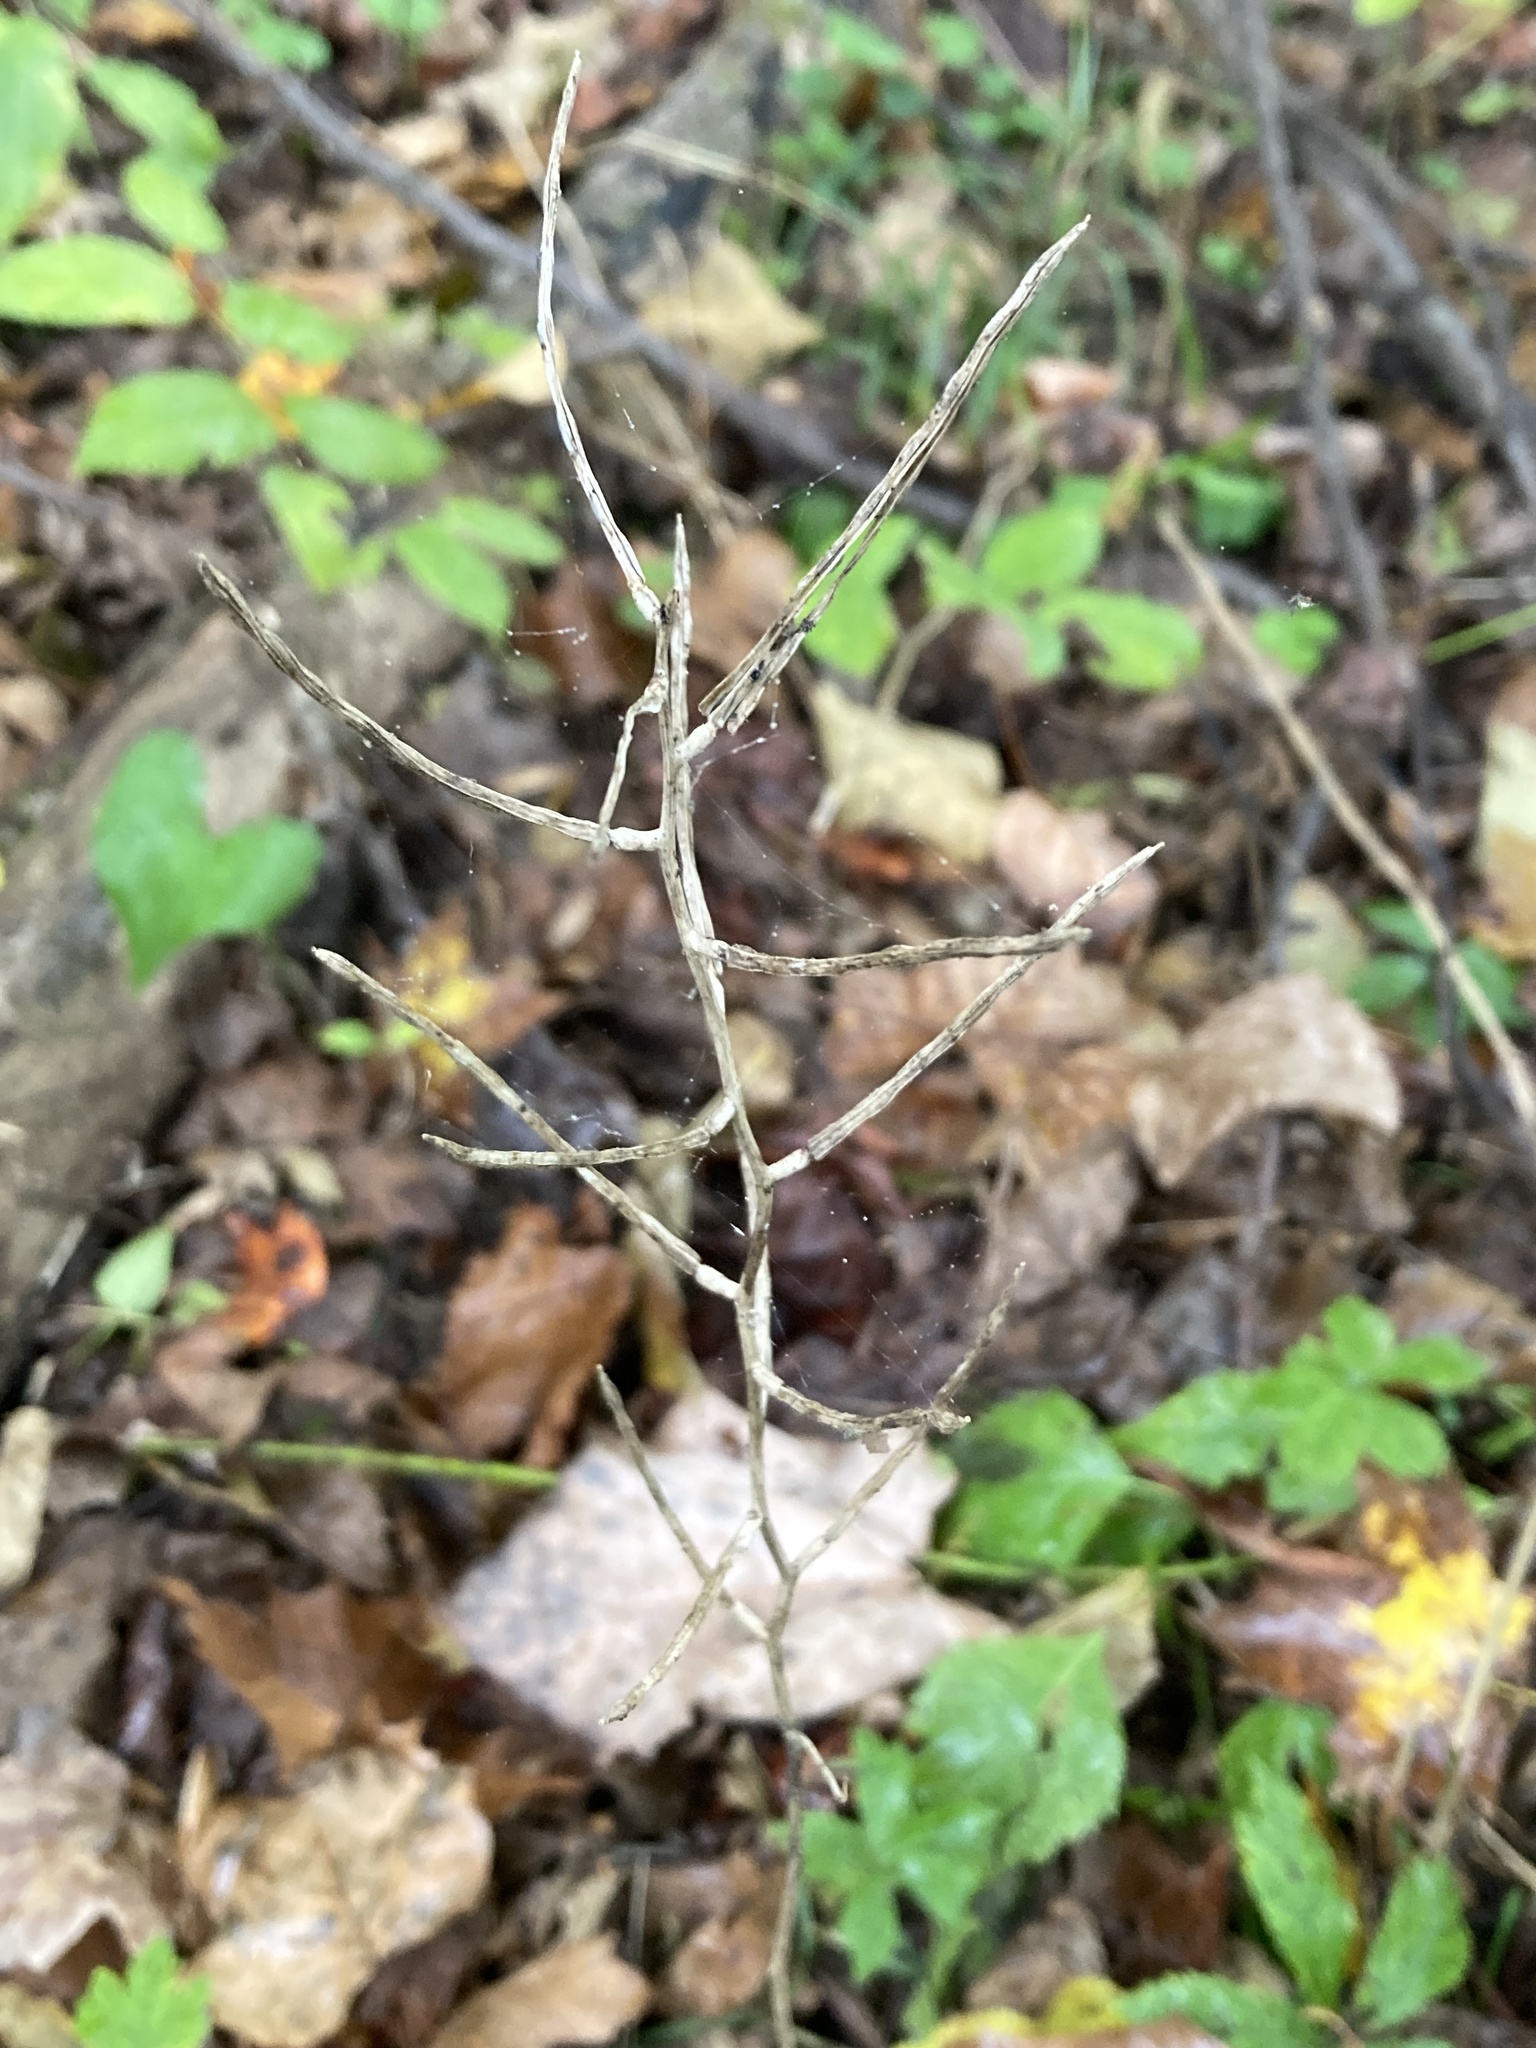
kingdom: Plantae
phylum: Tracheophyta
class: Magnoliopsida
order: Brassicales
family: Brassicaceae
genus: Alliaria
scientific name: Alliaria petiolata
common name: Garlic mustard
